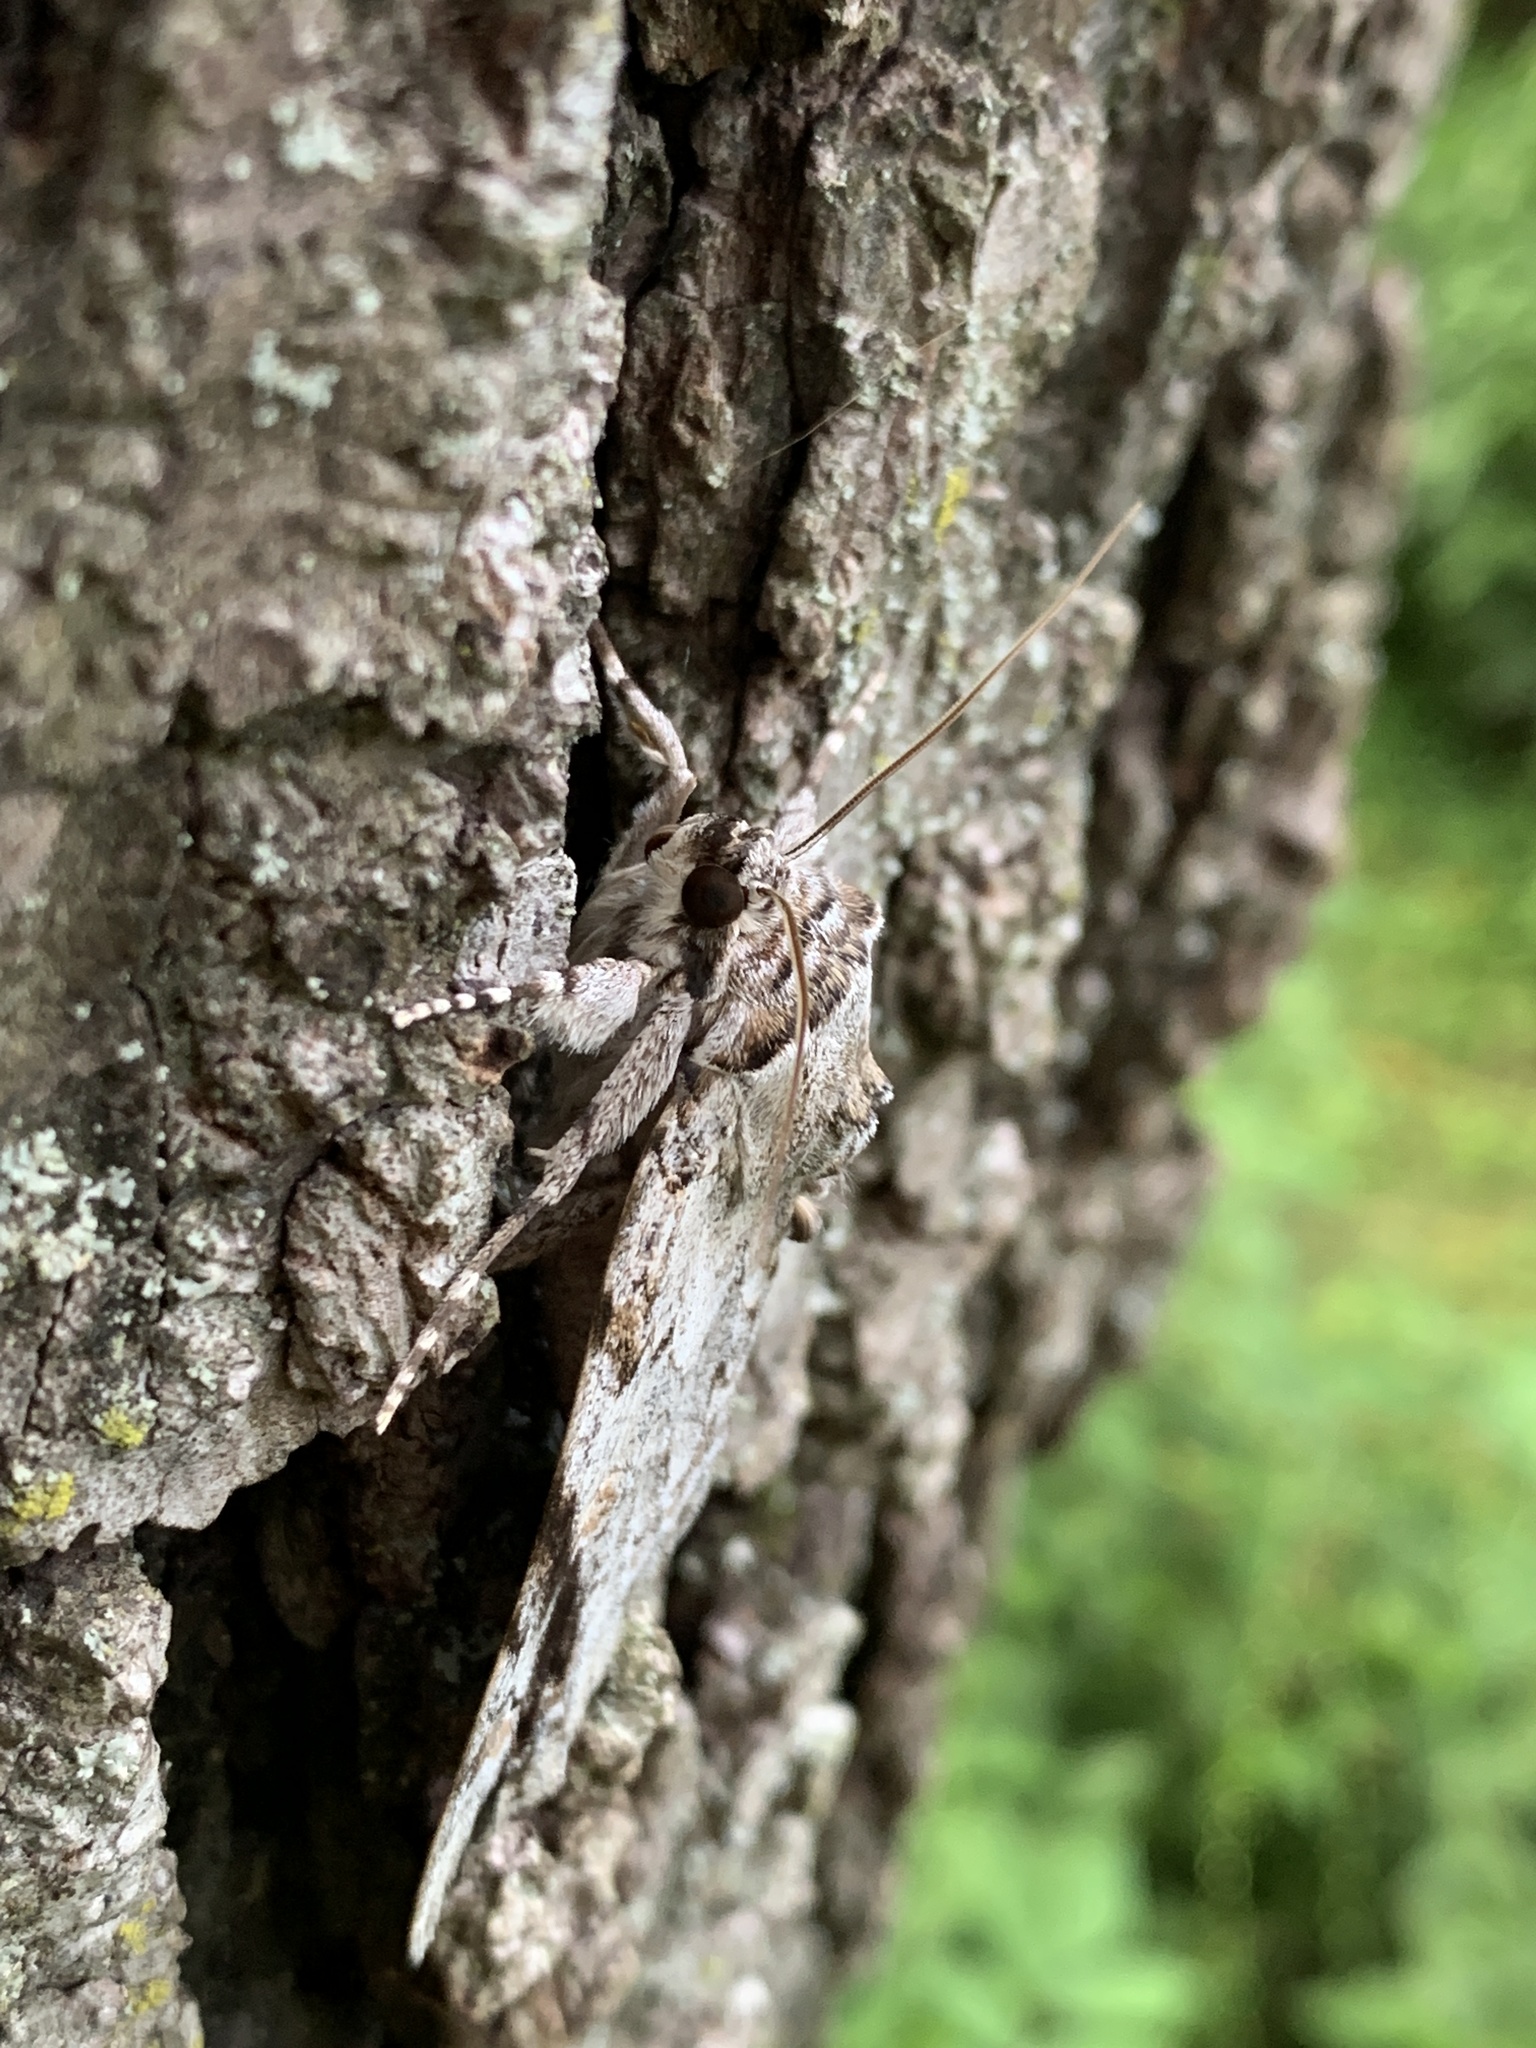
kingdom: Animalia
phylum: Arthropoda
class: Insecta
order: Lepidoptera
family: Erebidae
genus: Catocala
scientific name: Catocala maestosa
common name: Sad underwing
